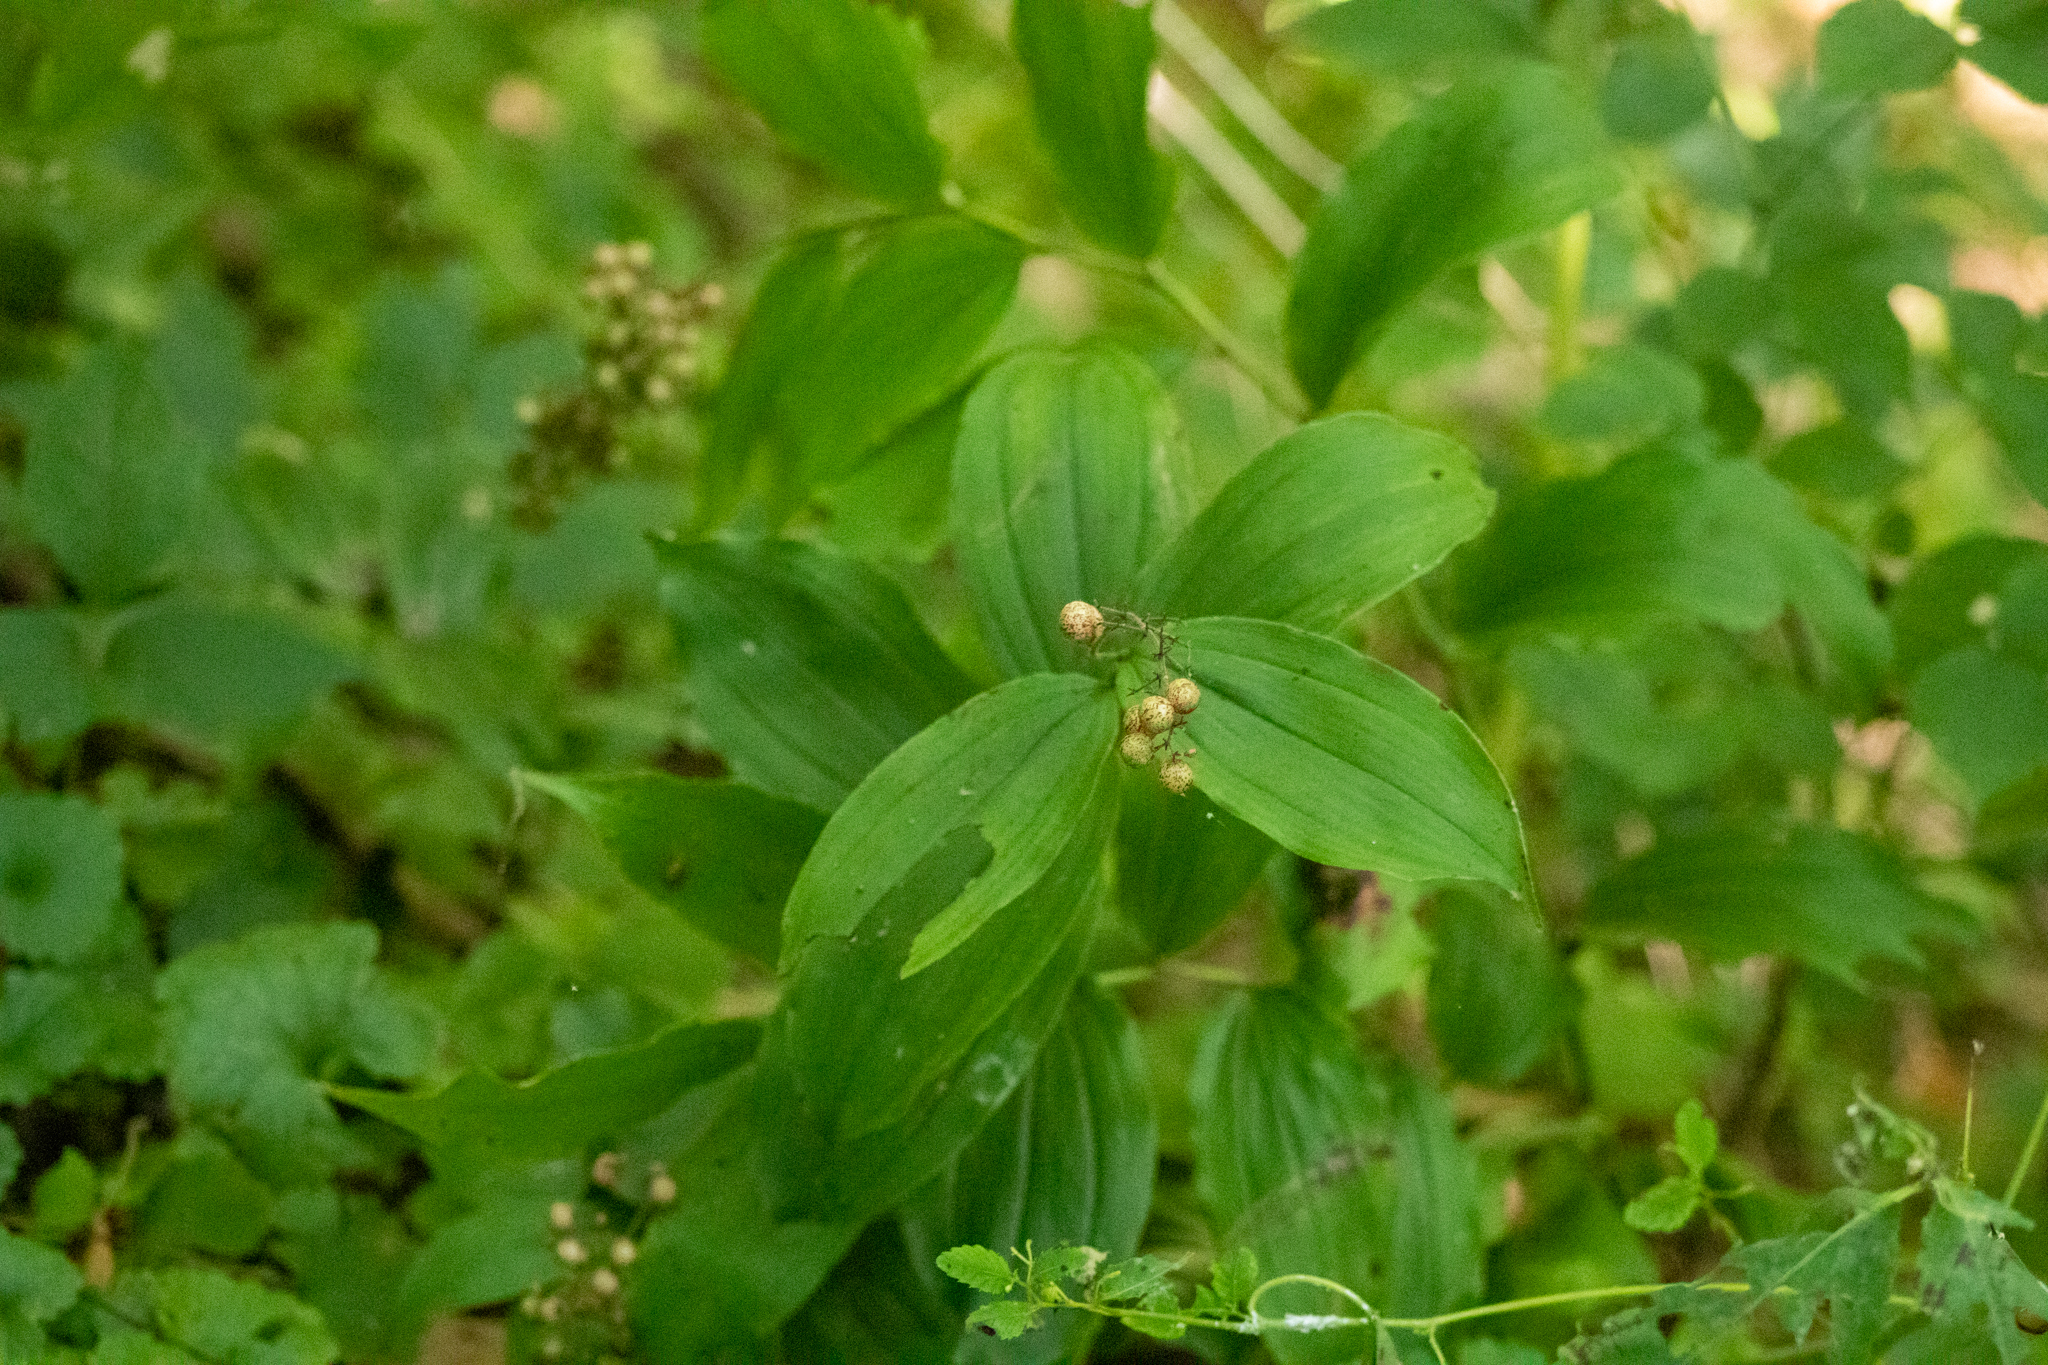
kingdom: Plantae
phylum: Tracheophyta
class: Liliopsida
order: Asparagales
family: Asparagaceae
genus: Maianthemum
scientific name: Maianthemum racemosum
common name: False spikenard
